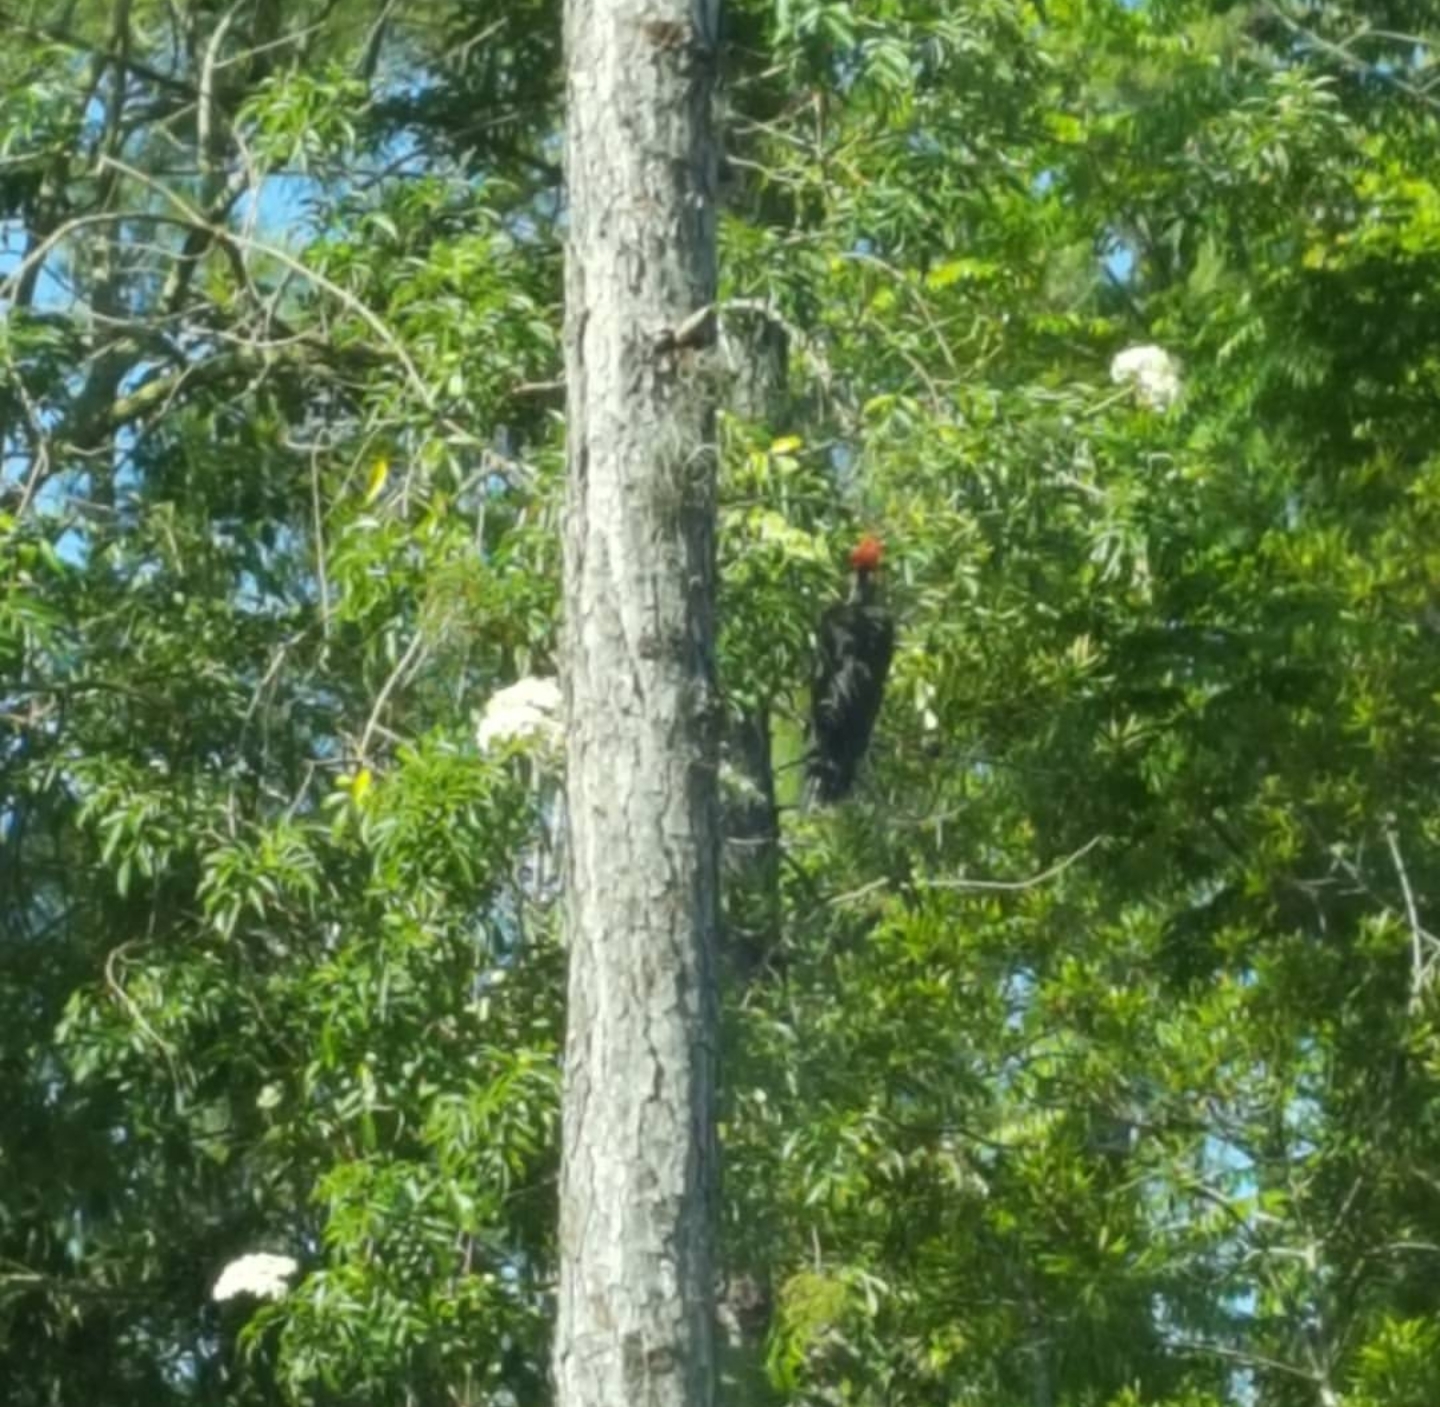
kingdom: Animalia
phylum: Chordata
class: Aves
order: Piciformes
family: Picidae
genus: Dryocopus
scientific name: Dryocopus pileatus
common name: Pileated woodpecker
